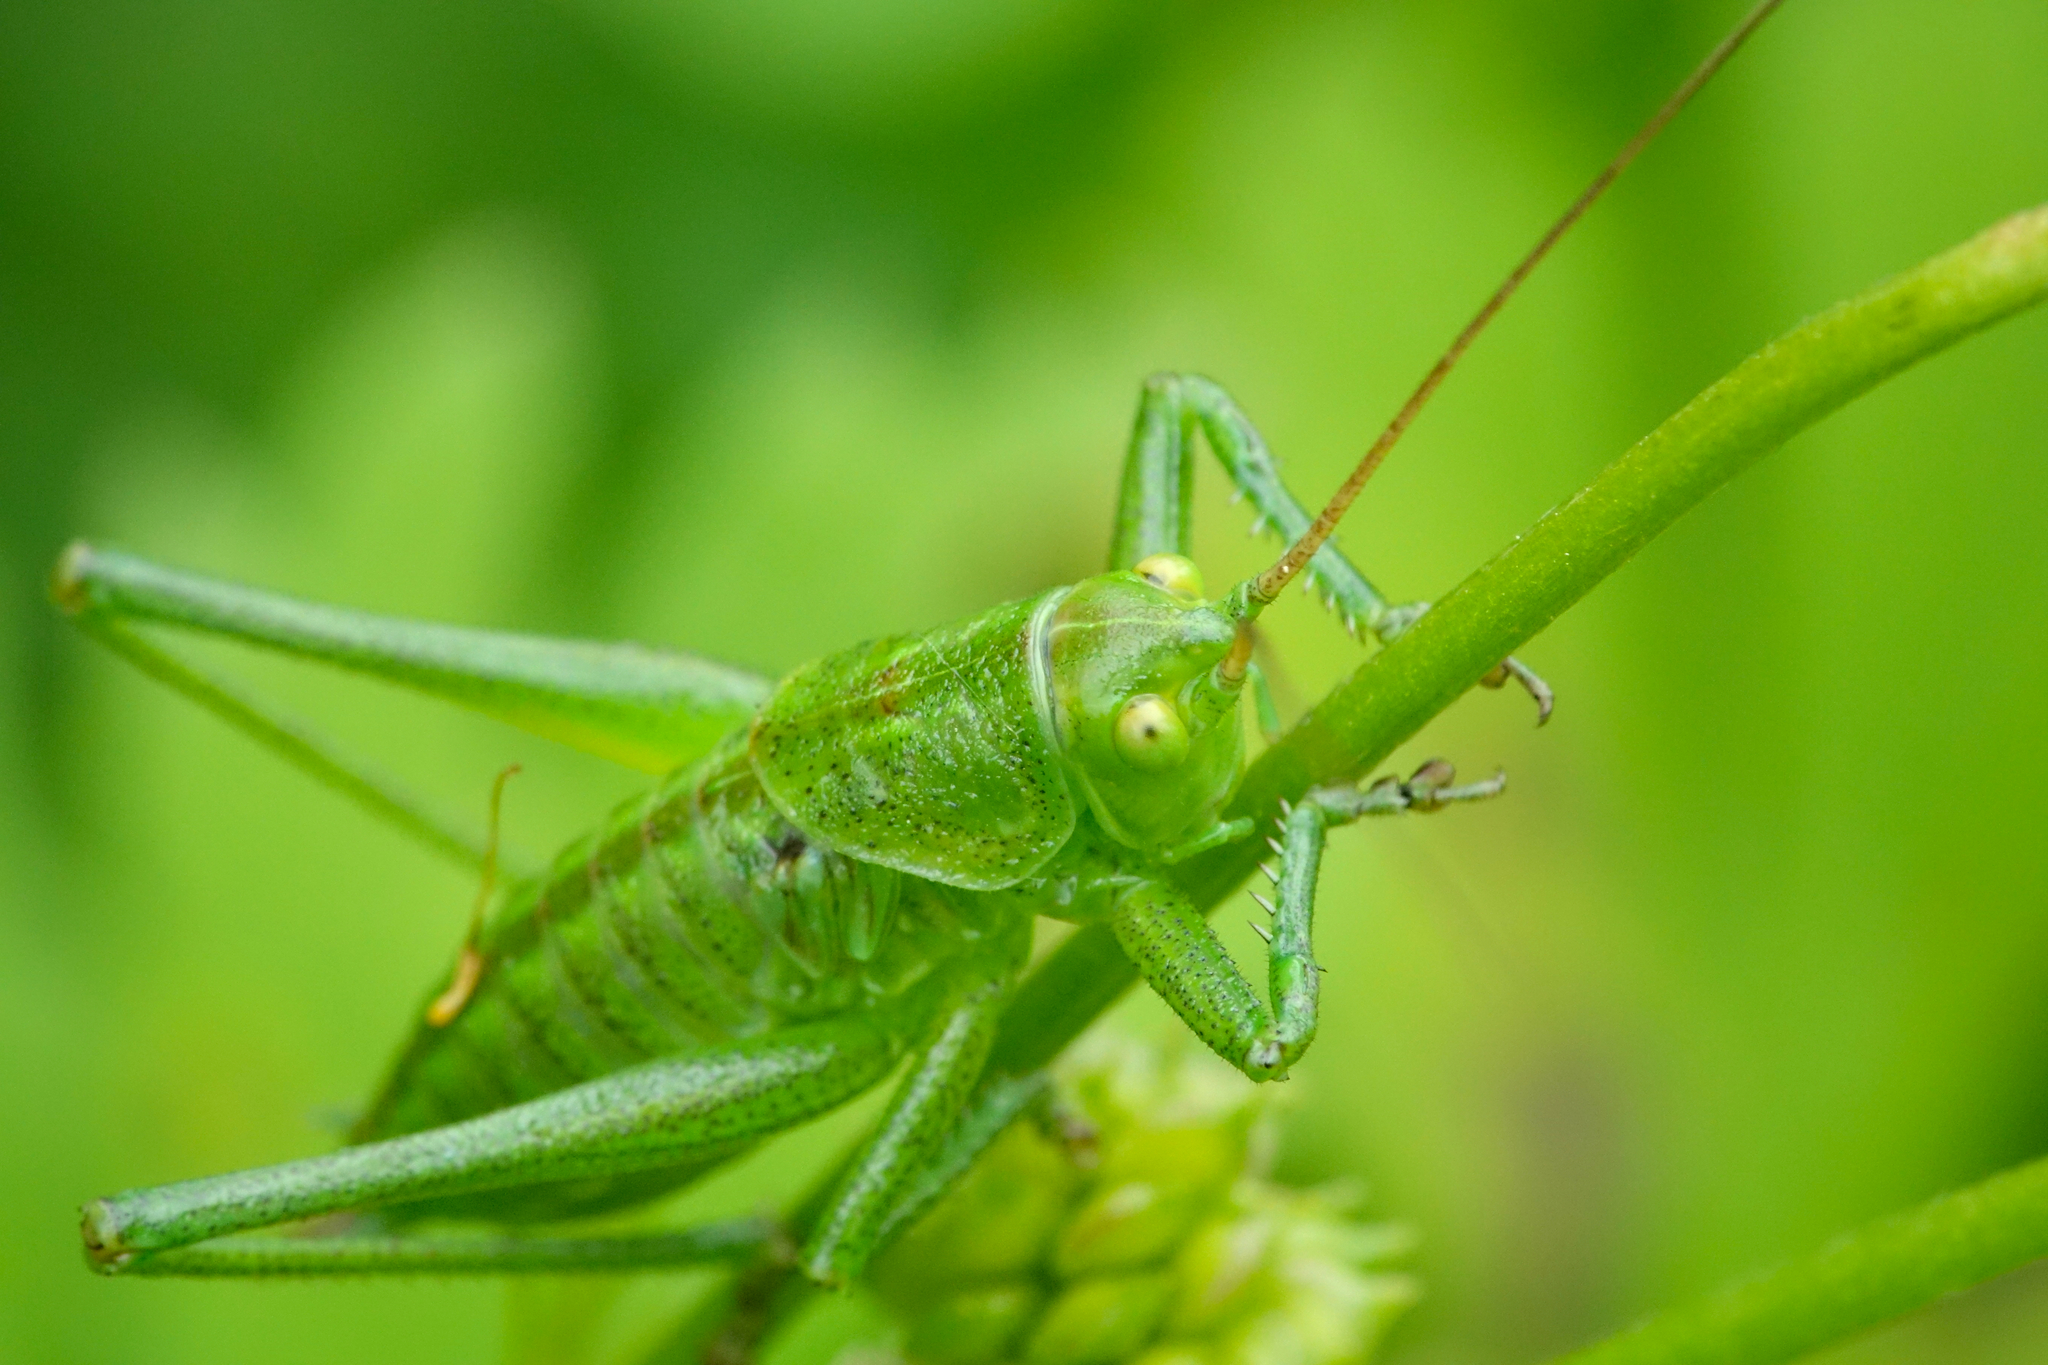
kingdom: Animalia
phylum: Arthropoda
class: Insecta
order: Orthoptera
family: Tettigoniidae
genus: Tettigonia
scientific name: Tettigonia viridissima
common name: Great green bush-cricket
